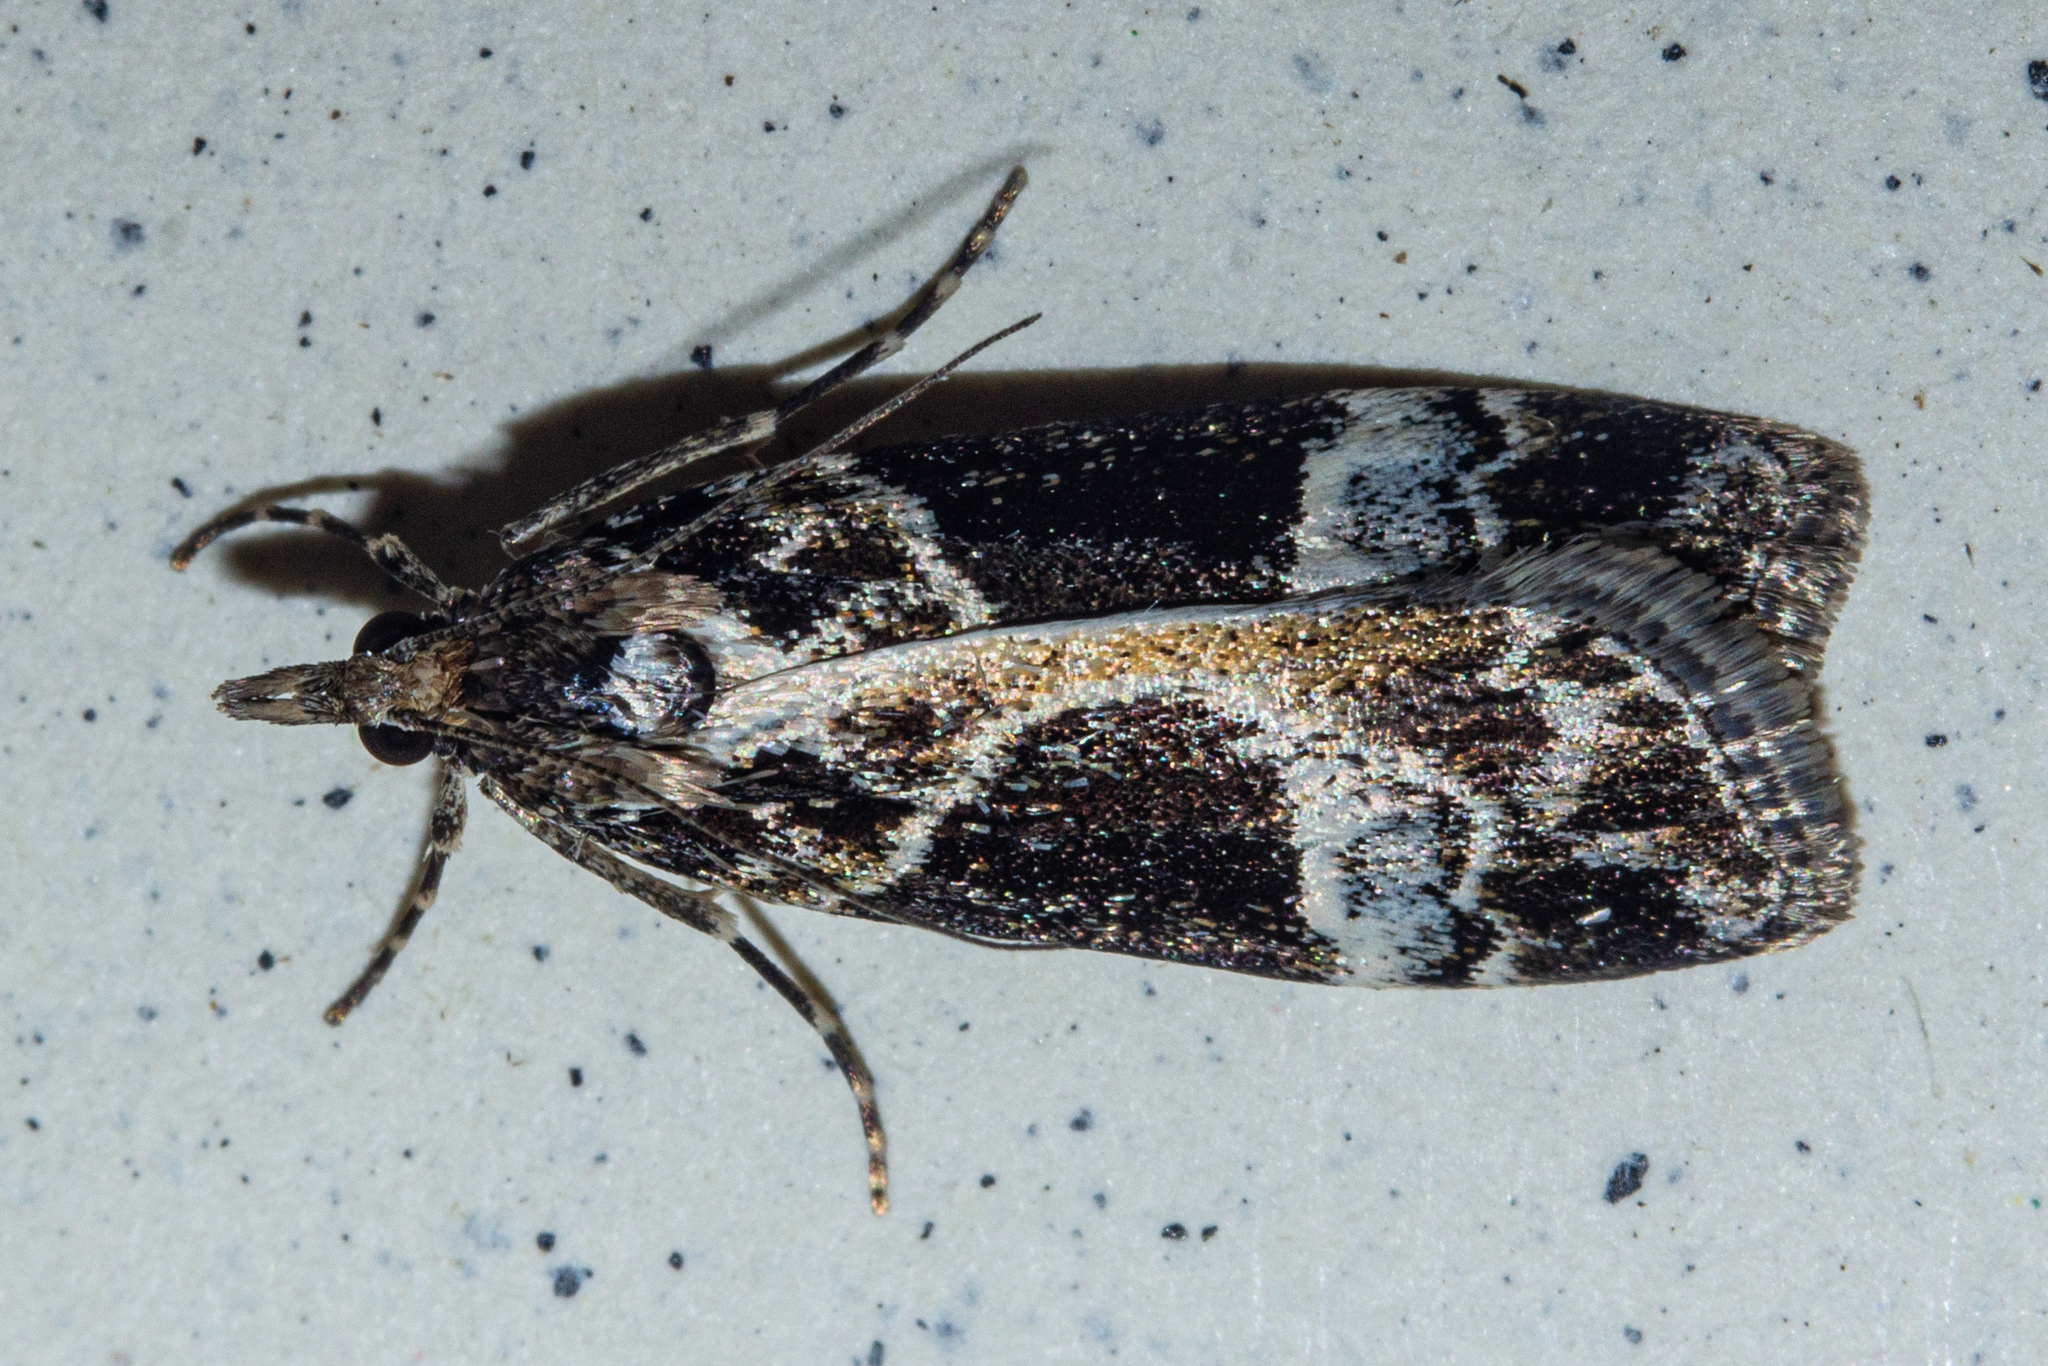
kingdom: Animalia
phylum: Arthropoda
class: Insecta
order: Lepidoptera
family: Crambidae
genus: Eudonia
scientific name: Eudonia melanaegis
